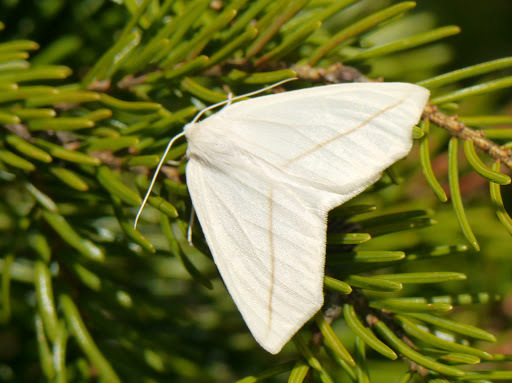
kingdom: Animalia
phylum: Arthropoda
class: Insecta
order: Lepidoptera
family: Geometridae
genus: Tetracis
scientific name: Tetracis cachexiata
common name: White slant-line
